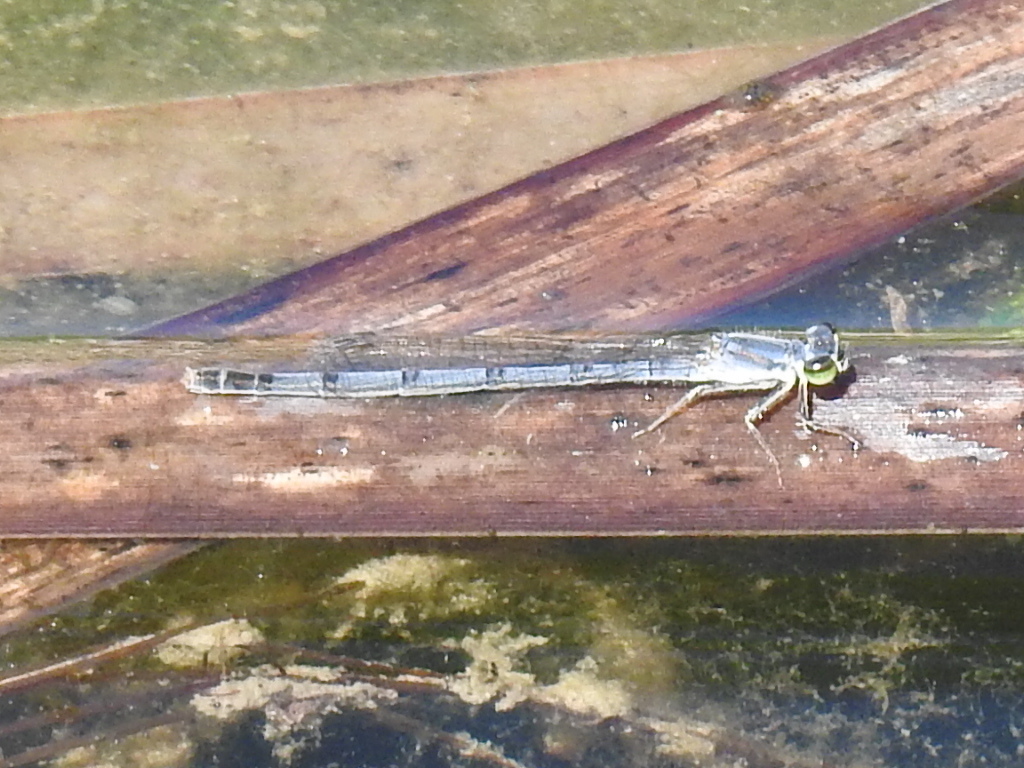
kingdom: Animalia
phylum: Arthropoda
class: Insecta
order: Odonata
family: Coenagrionidae
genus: Ischnura
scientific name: Ischnura posita
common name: Fragile forktail
